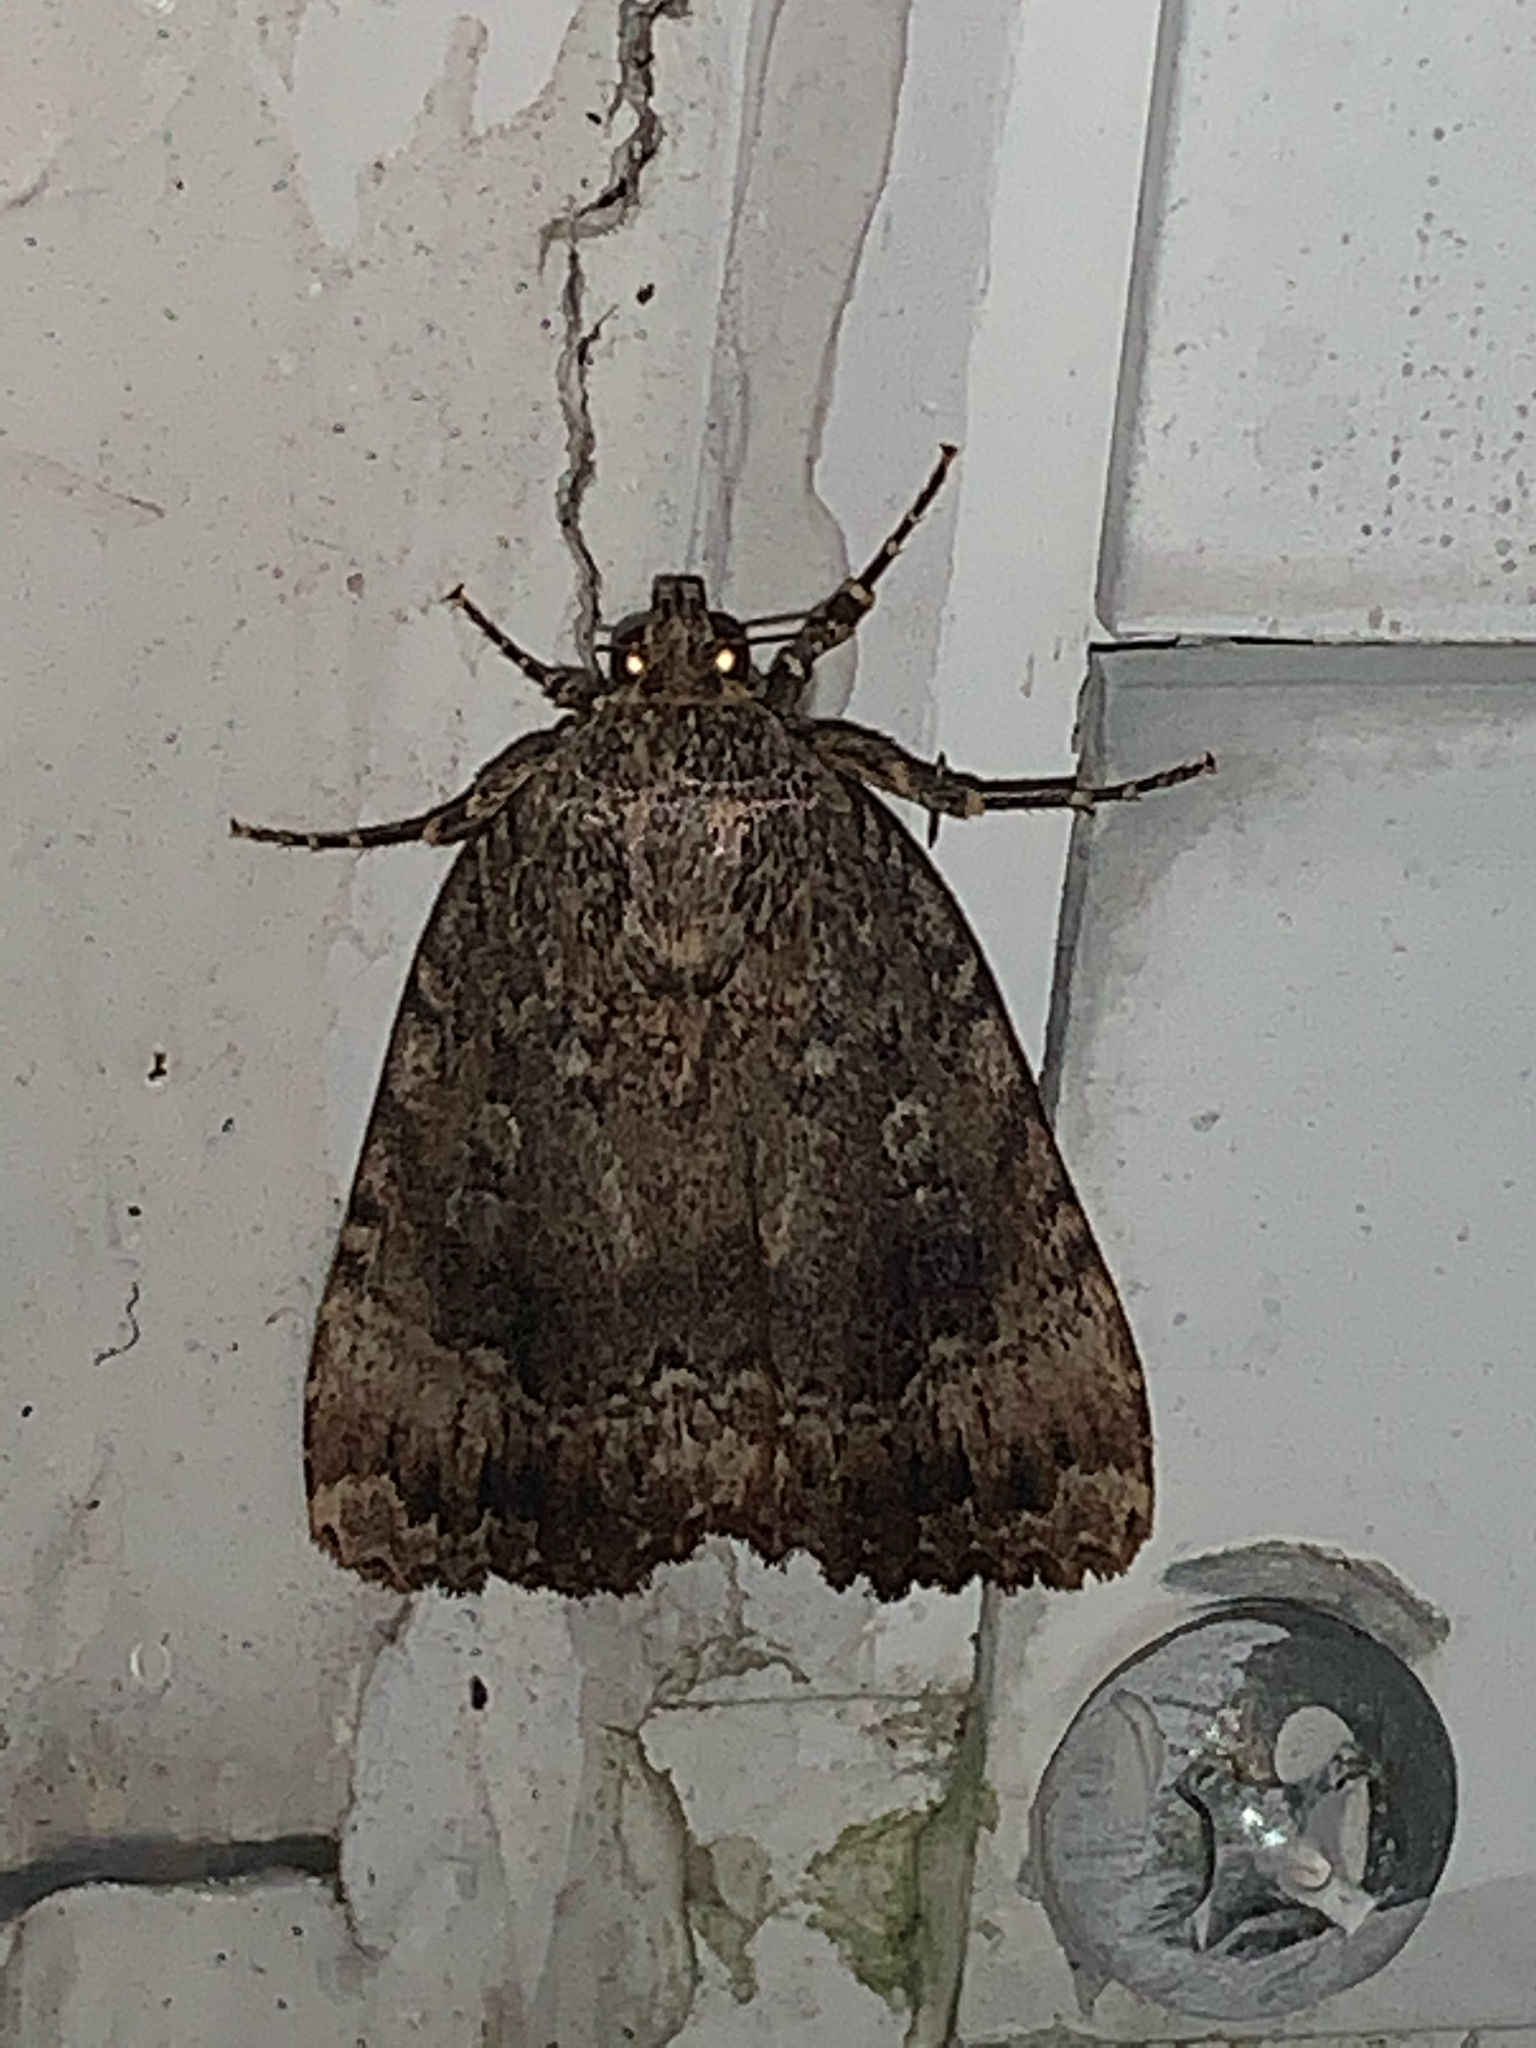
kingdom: Animalia
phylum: Arthropoda
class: Insecta
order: Lepidoptera
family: Noctuidae
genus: Amphipyra
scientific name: Amphipyra pyramidoides
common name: American copper underwing
